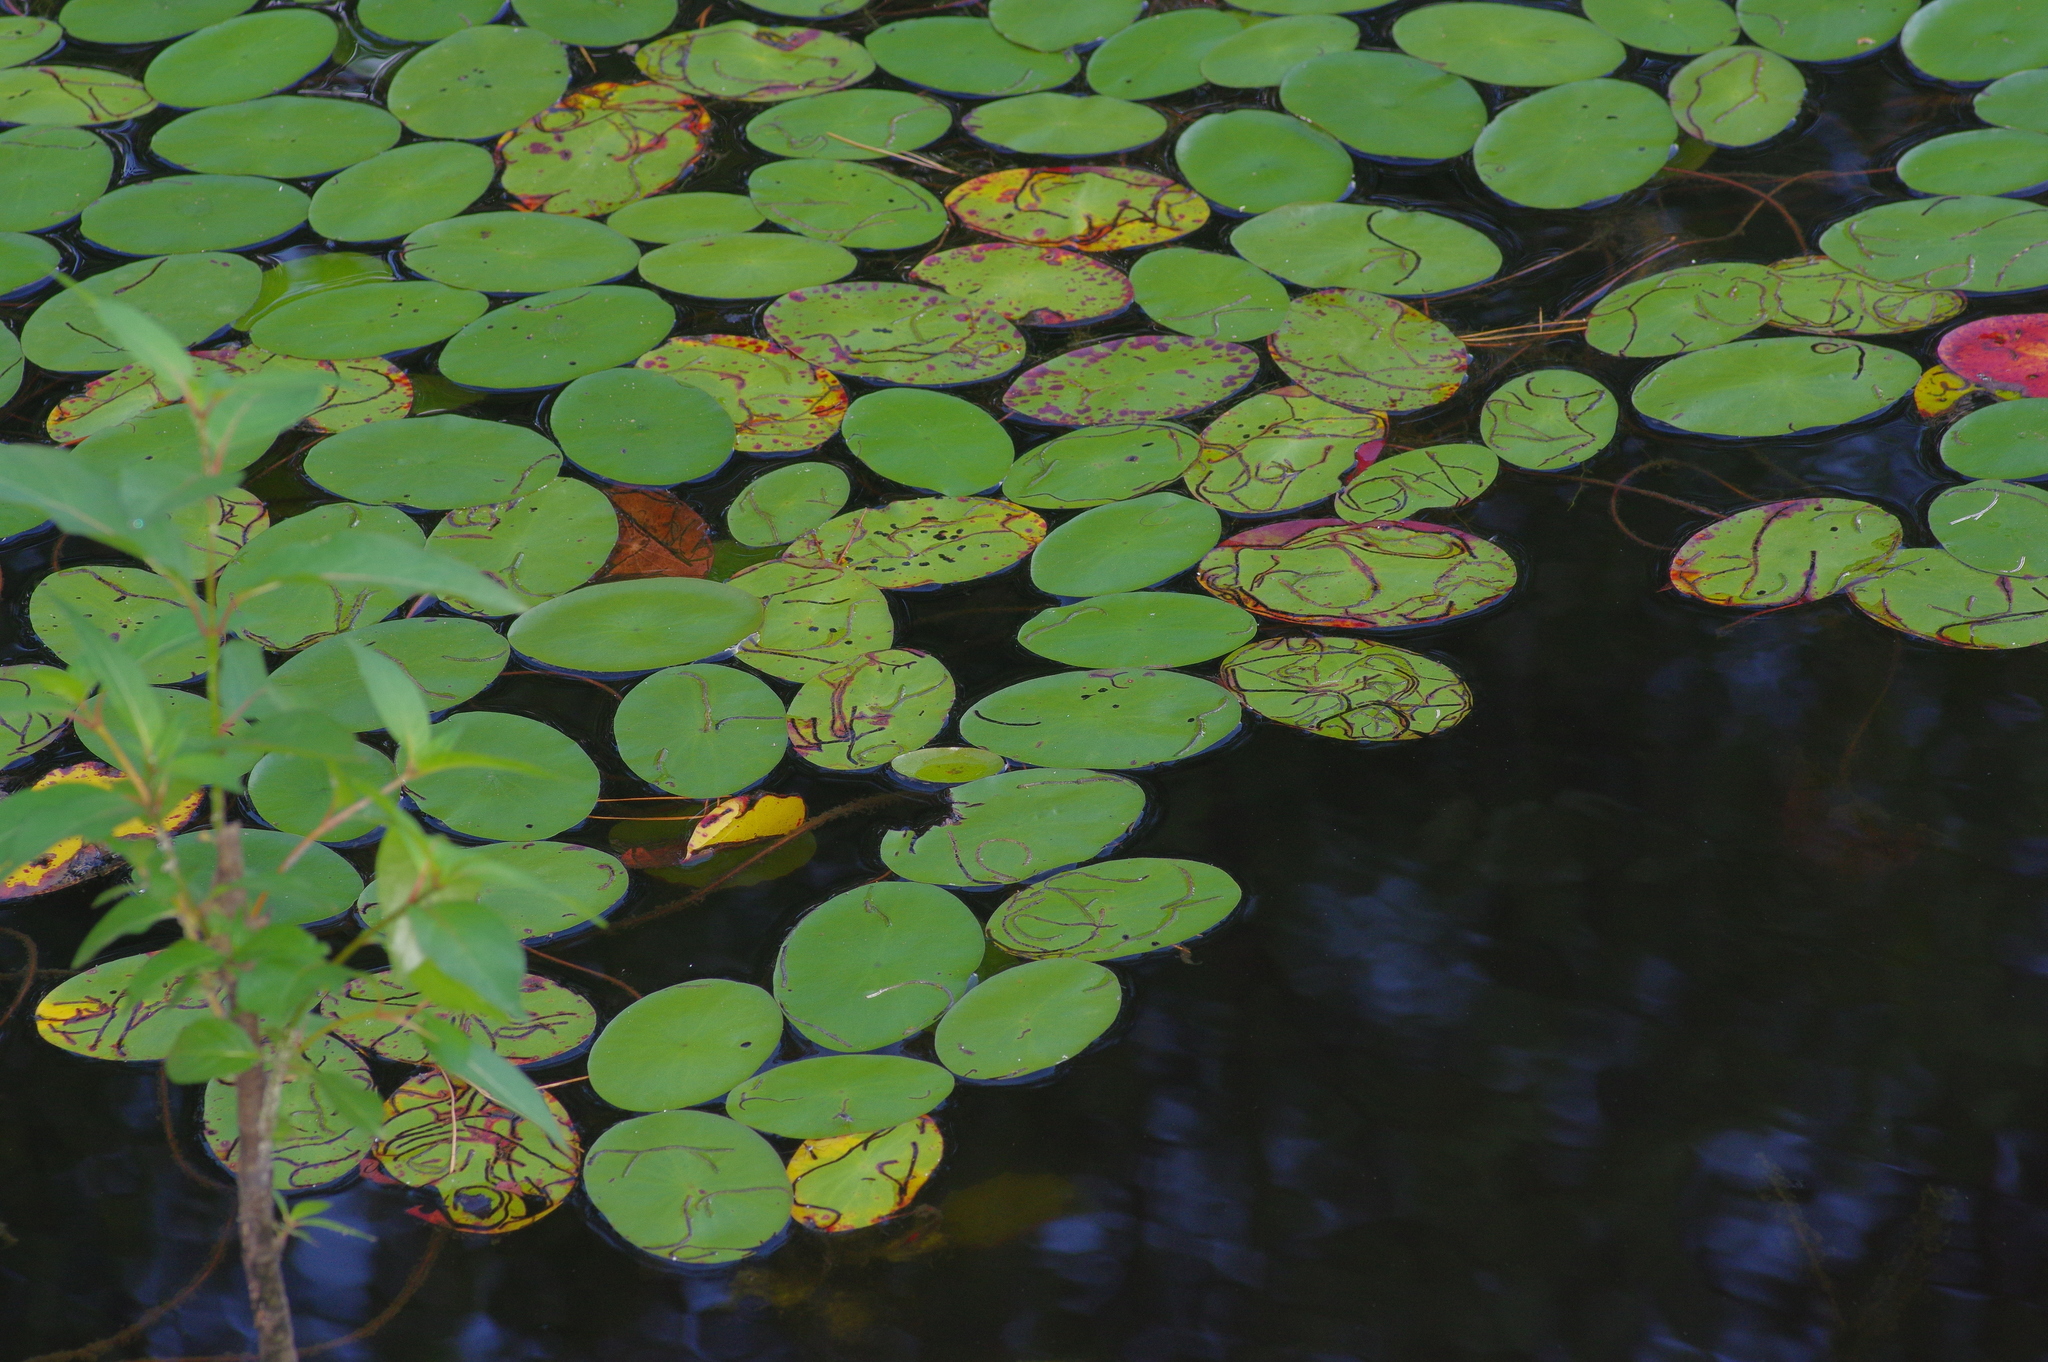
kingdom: Plantae
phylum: Tracheophyta
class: Magnoliopsida
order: Nymphaeales
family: Cabombaceae
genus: Brasenia
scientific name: Brasenia schreberi
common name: Water-shield
